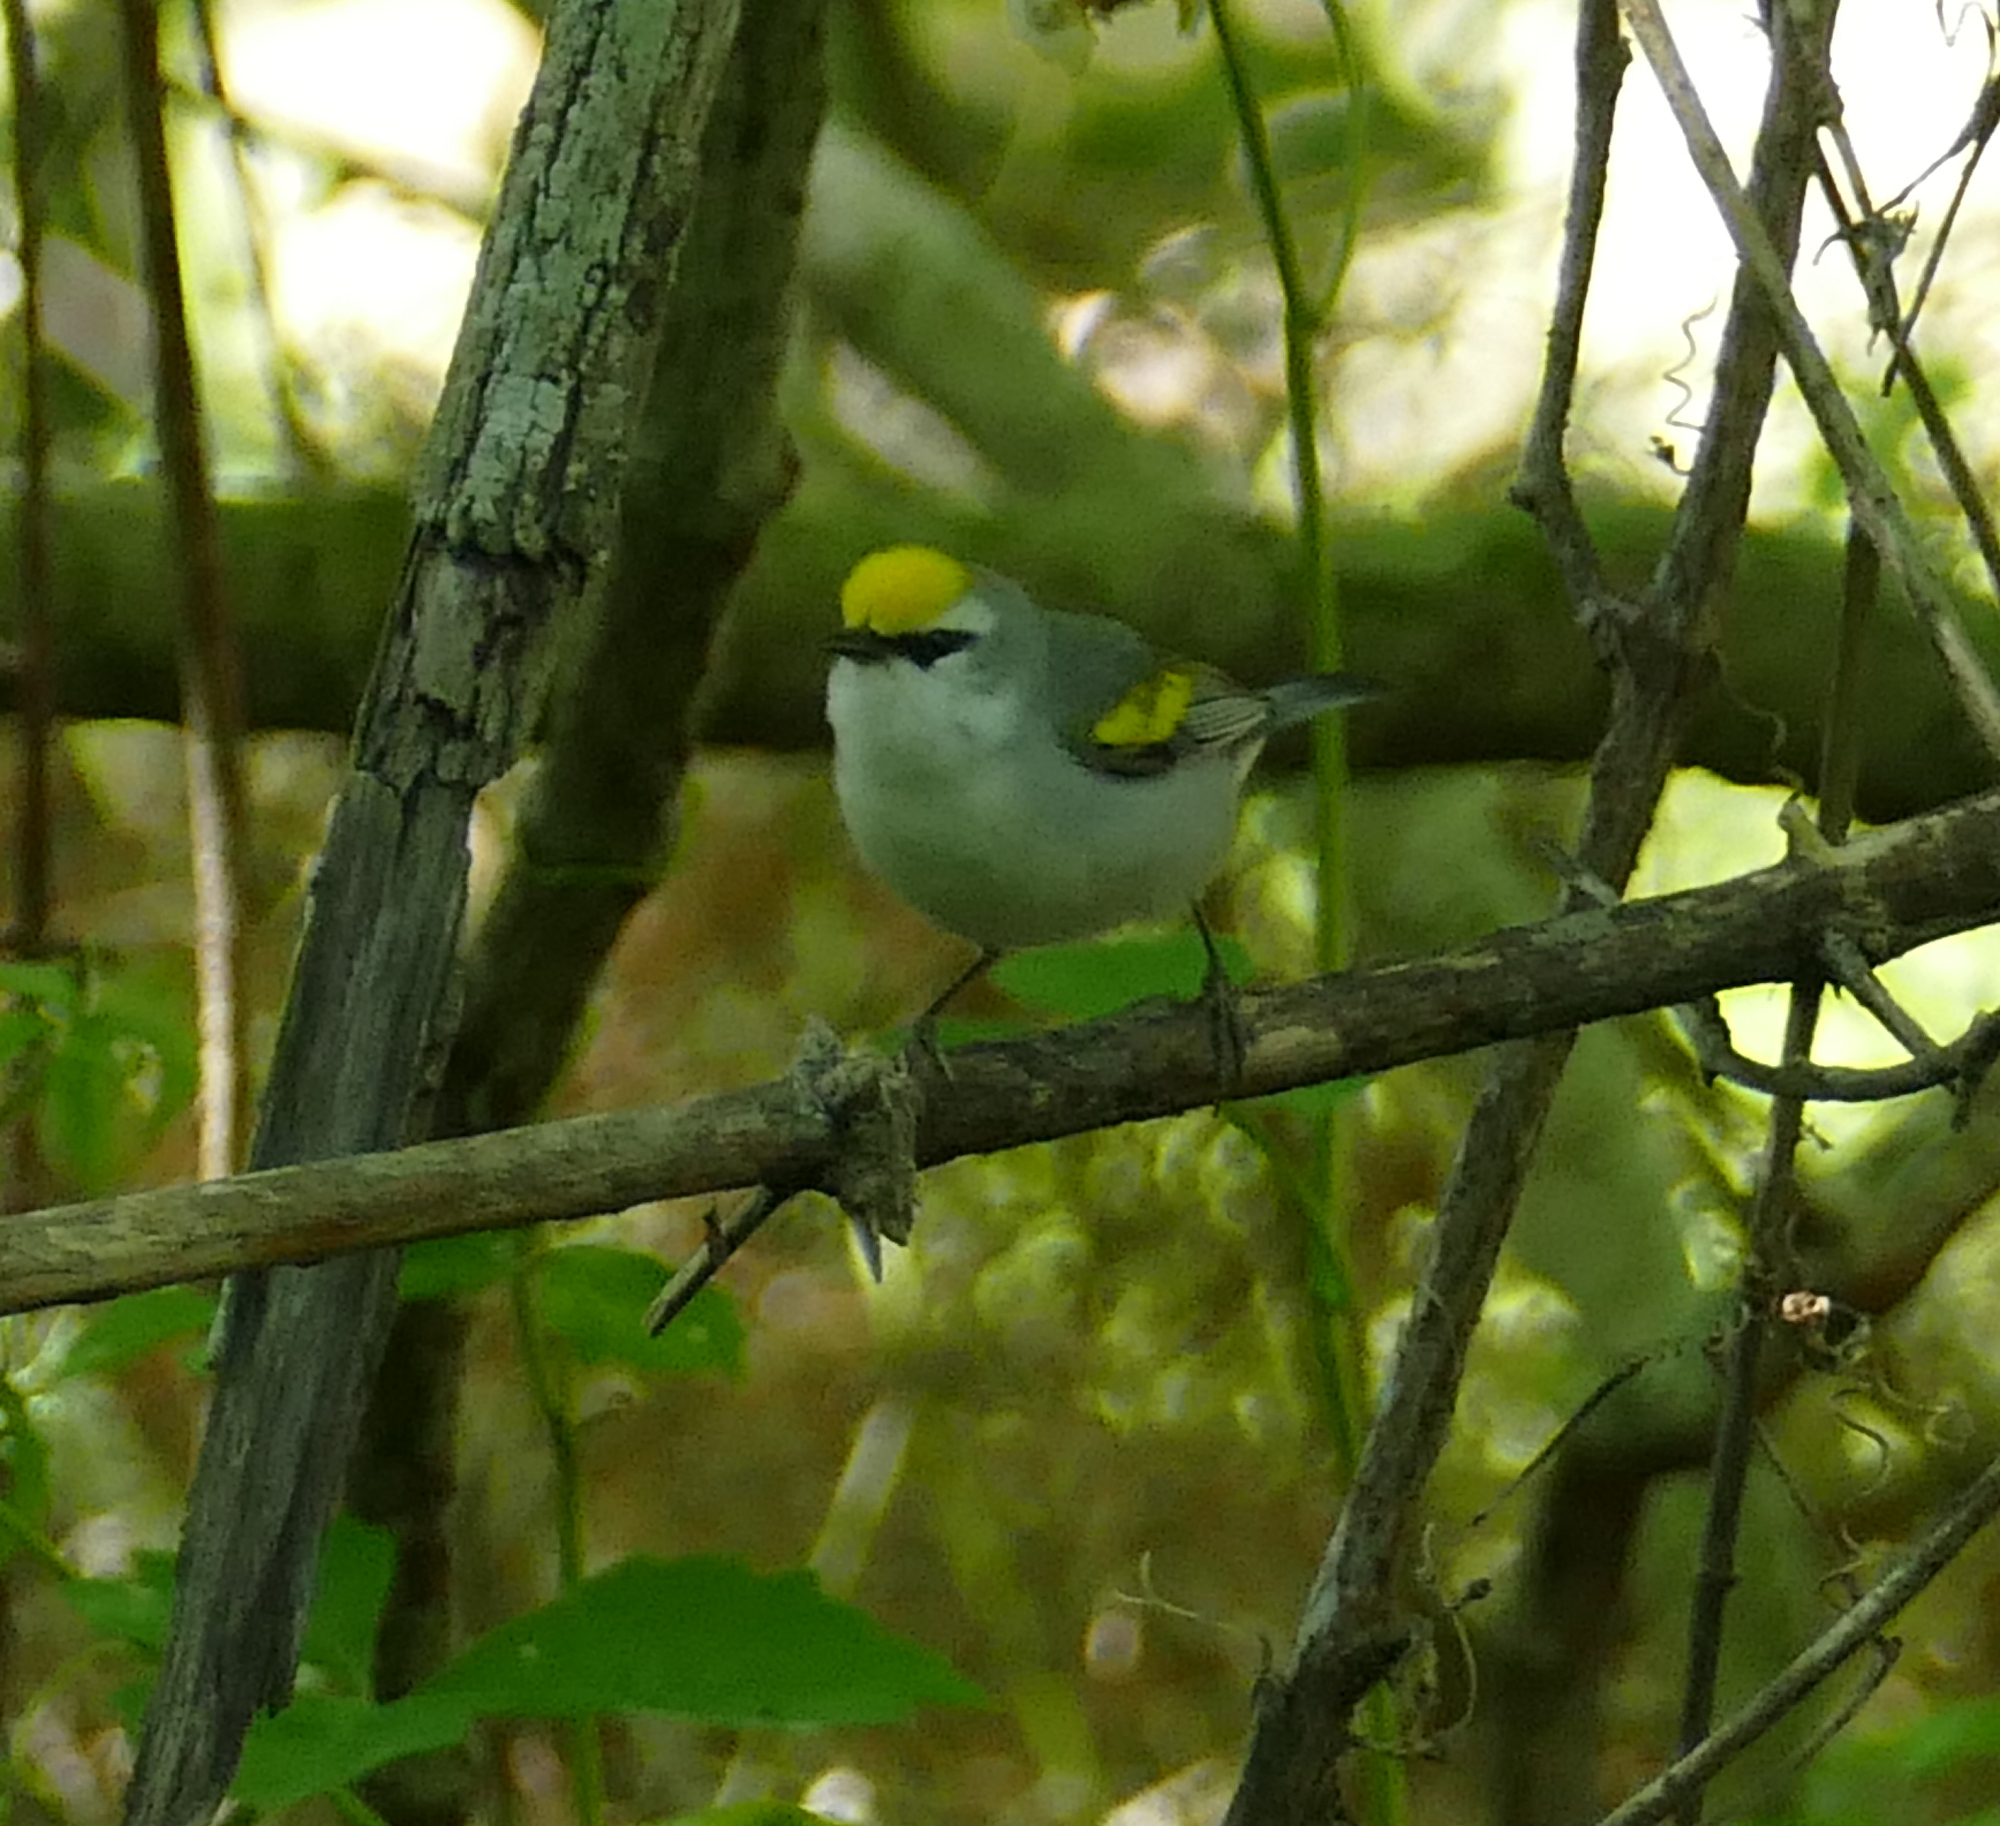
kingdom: Animalia
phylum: Chordata
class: Aves
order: Passeriformes
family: Parulidae
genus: Vermivora
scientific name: Vermivora
